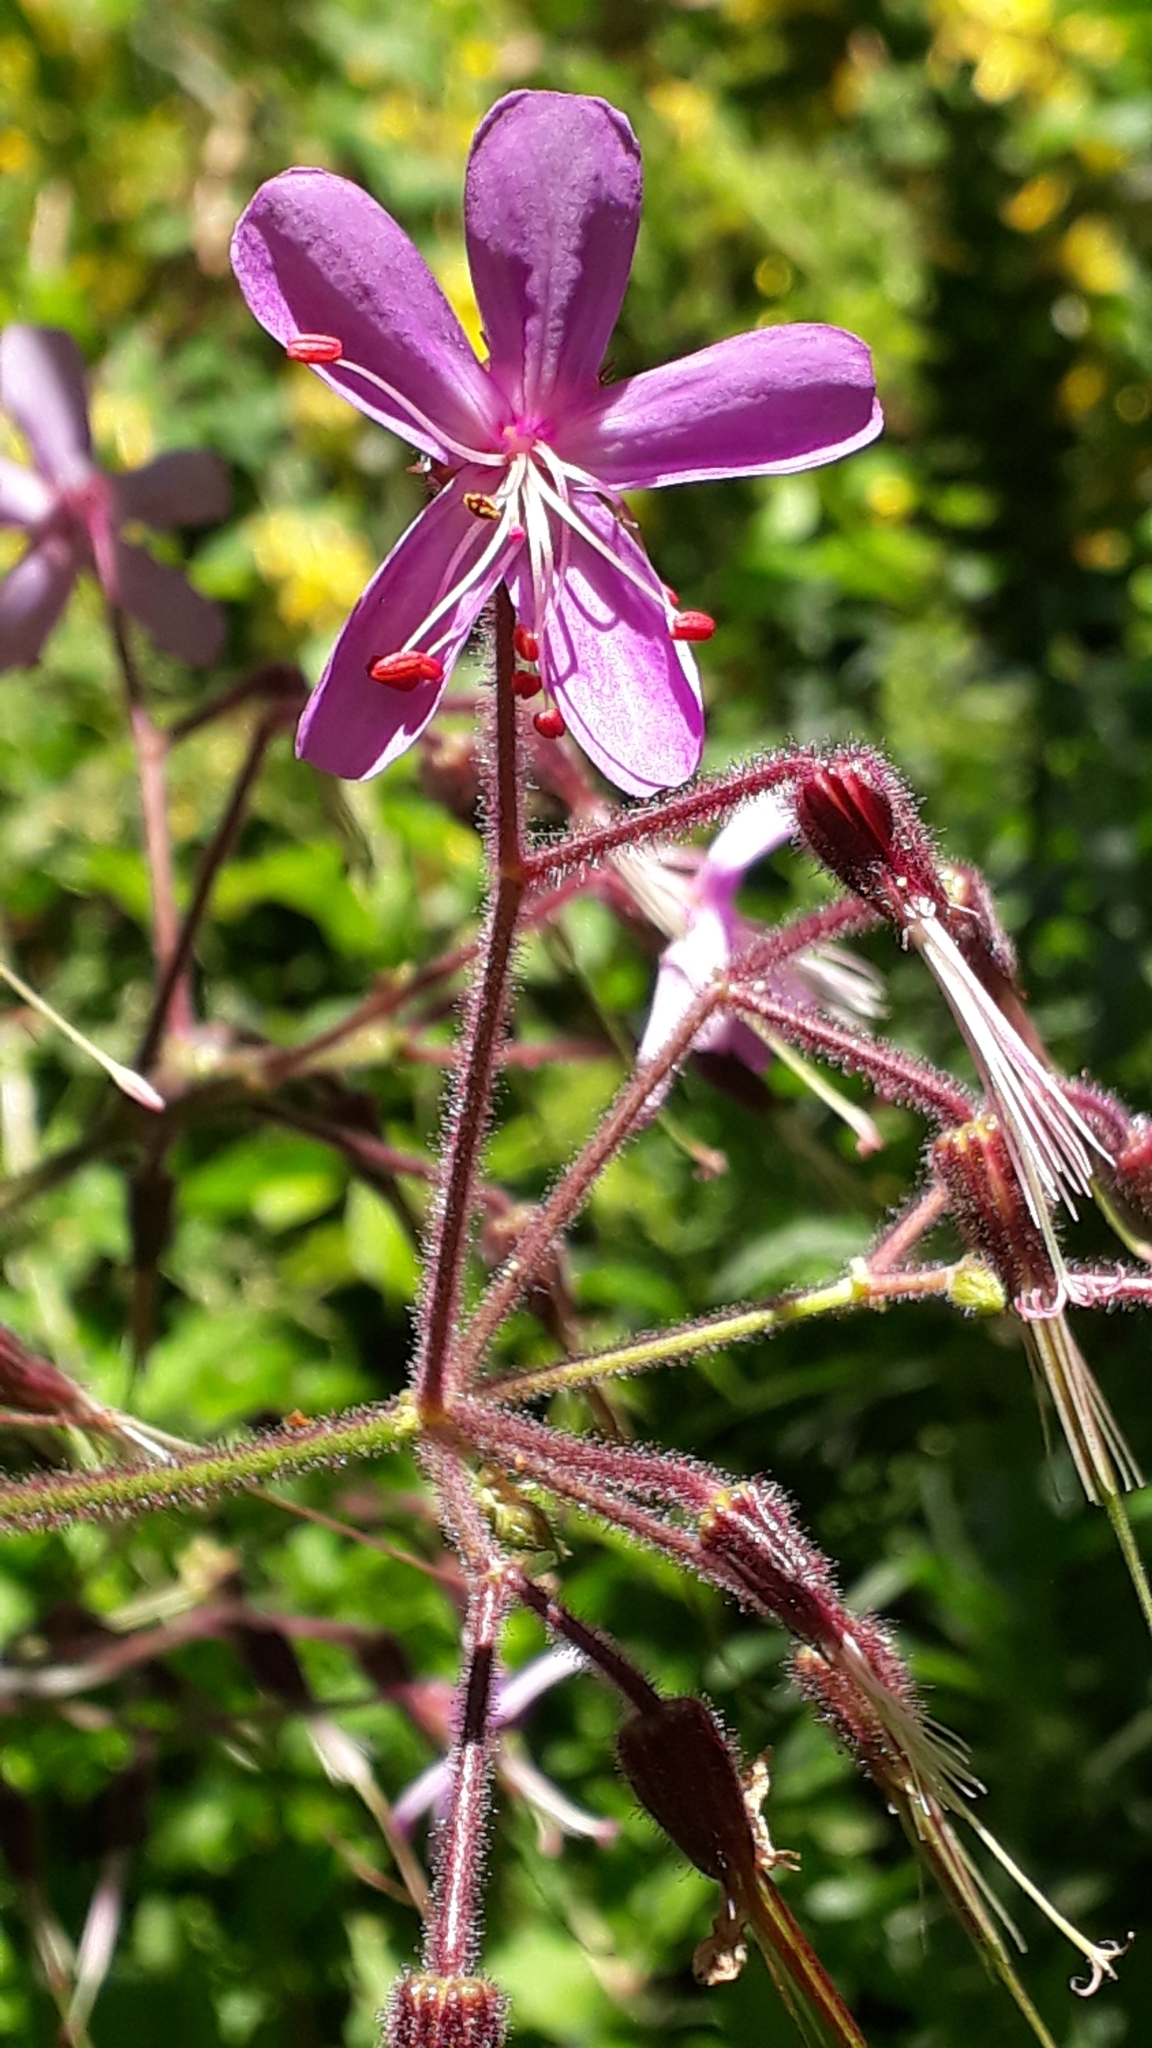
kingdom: Plantae
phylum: Tracheophyta
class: Magnoliopsida
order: Geraniales
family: Geraniaceae
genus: Geranium
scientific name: Geranium reuteri
